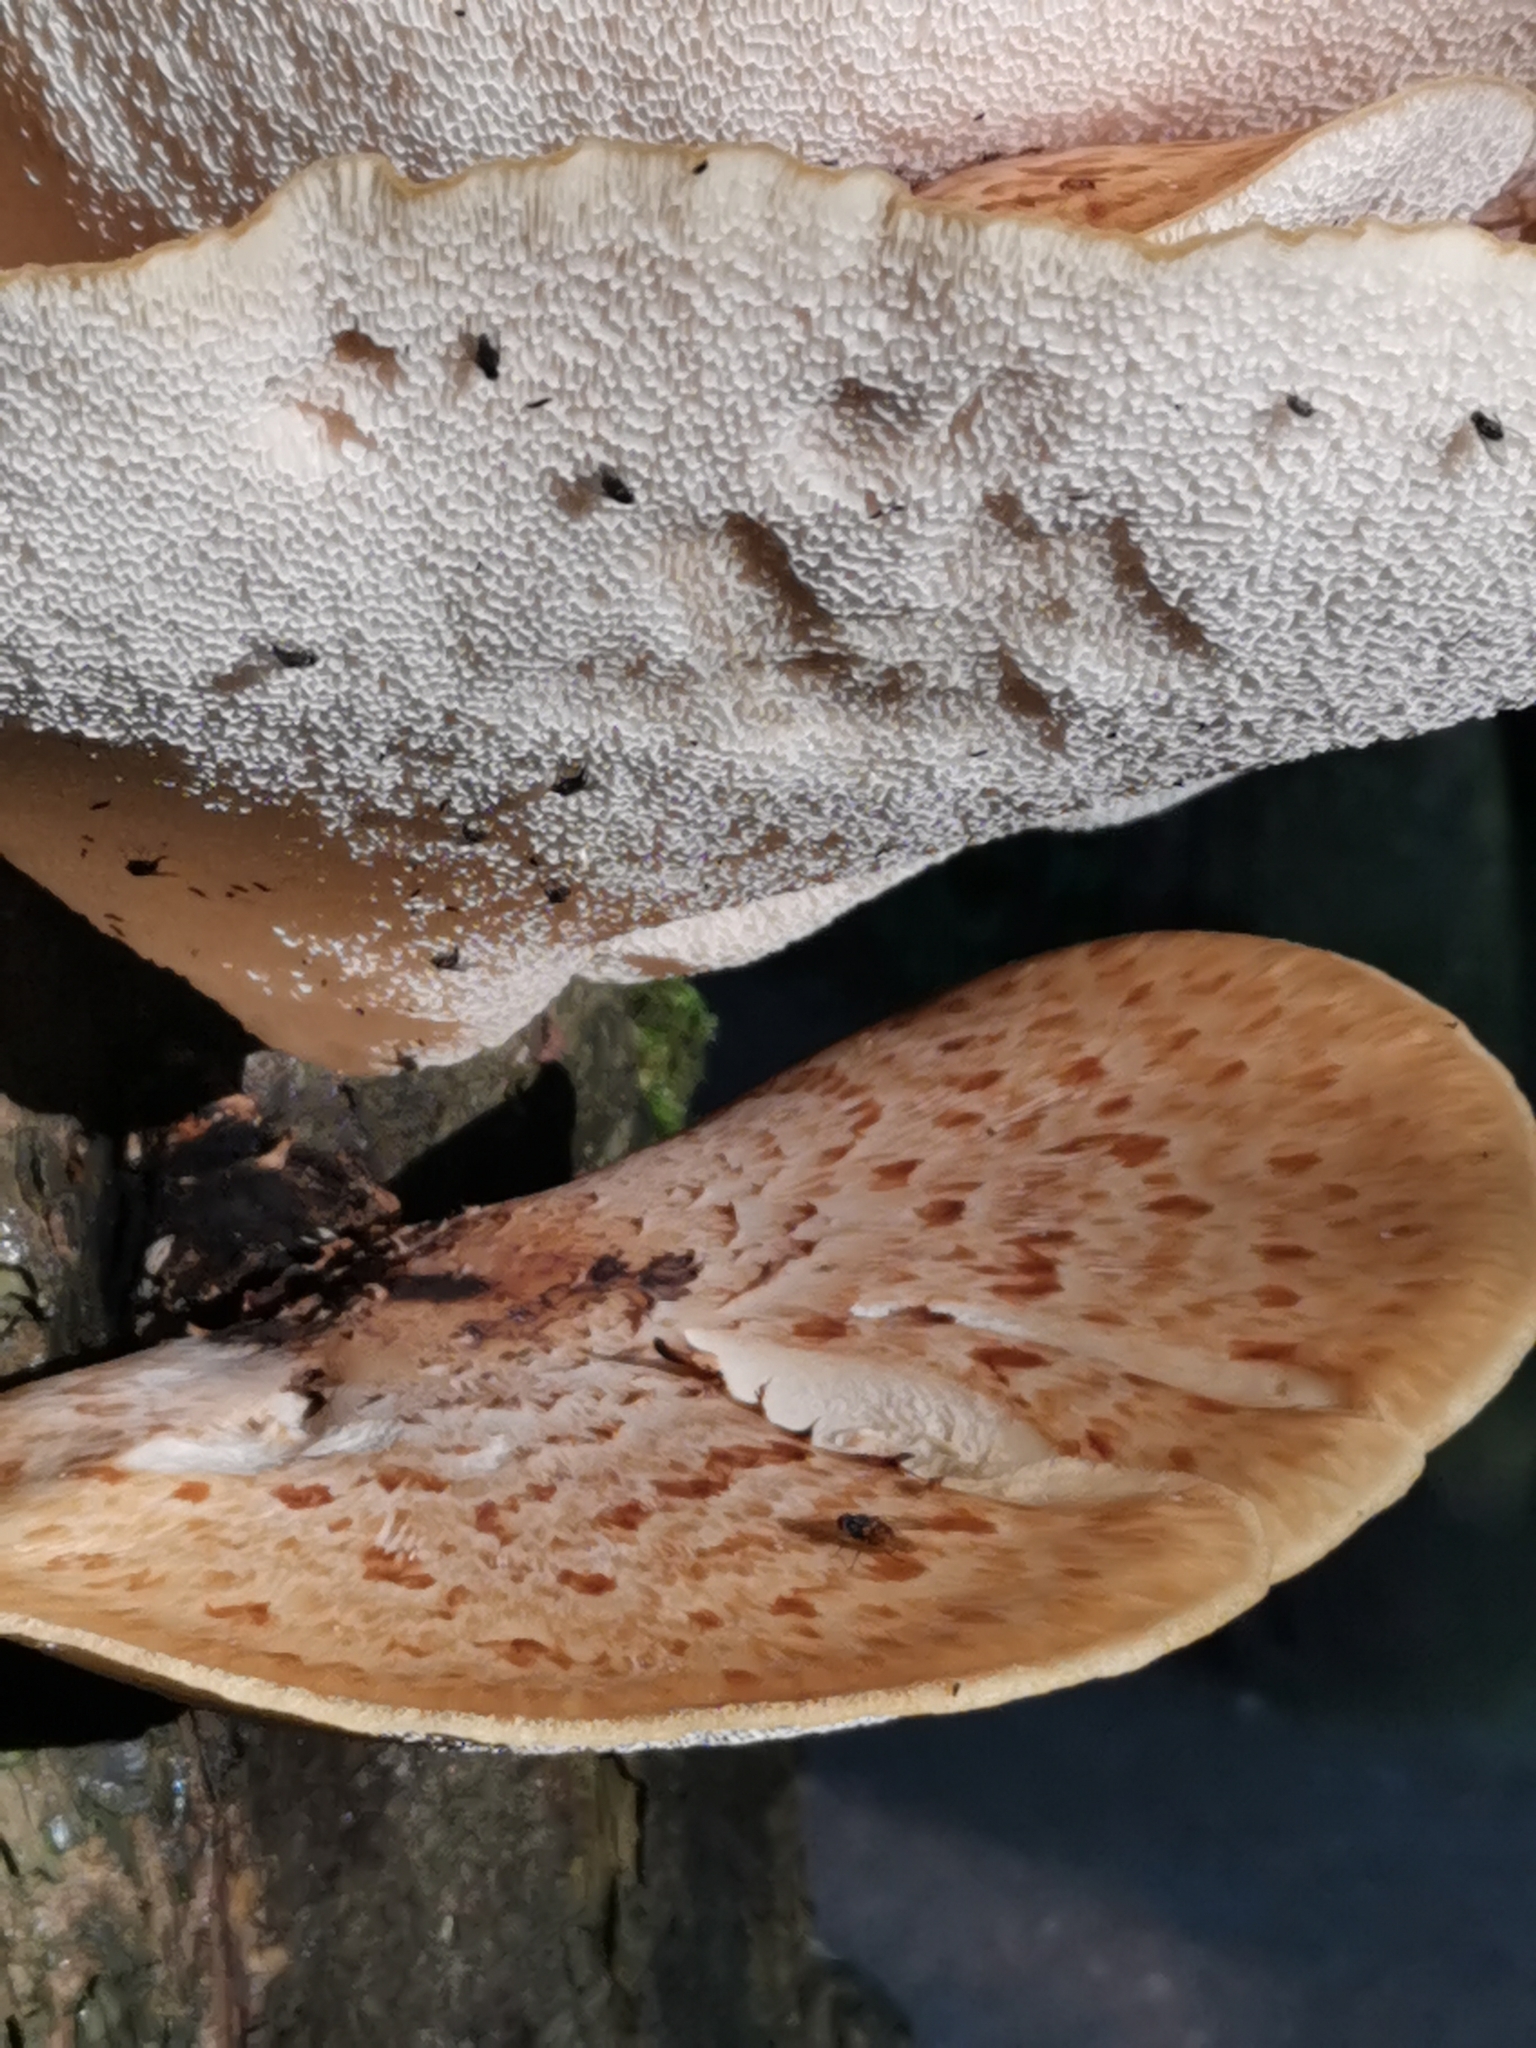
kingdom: Fungi
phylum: Basidiomycota
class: Agaricomycetes
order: Polyporales
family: Polyporaceae
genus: Cerioporus
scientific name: Cerioporus squamosus
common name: Dryad's saddle
